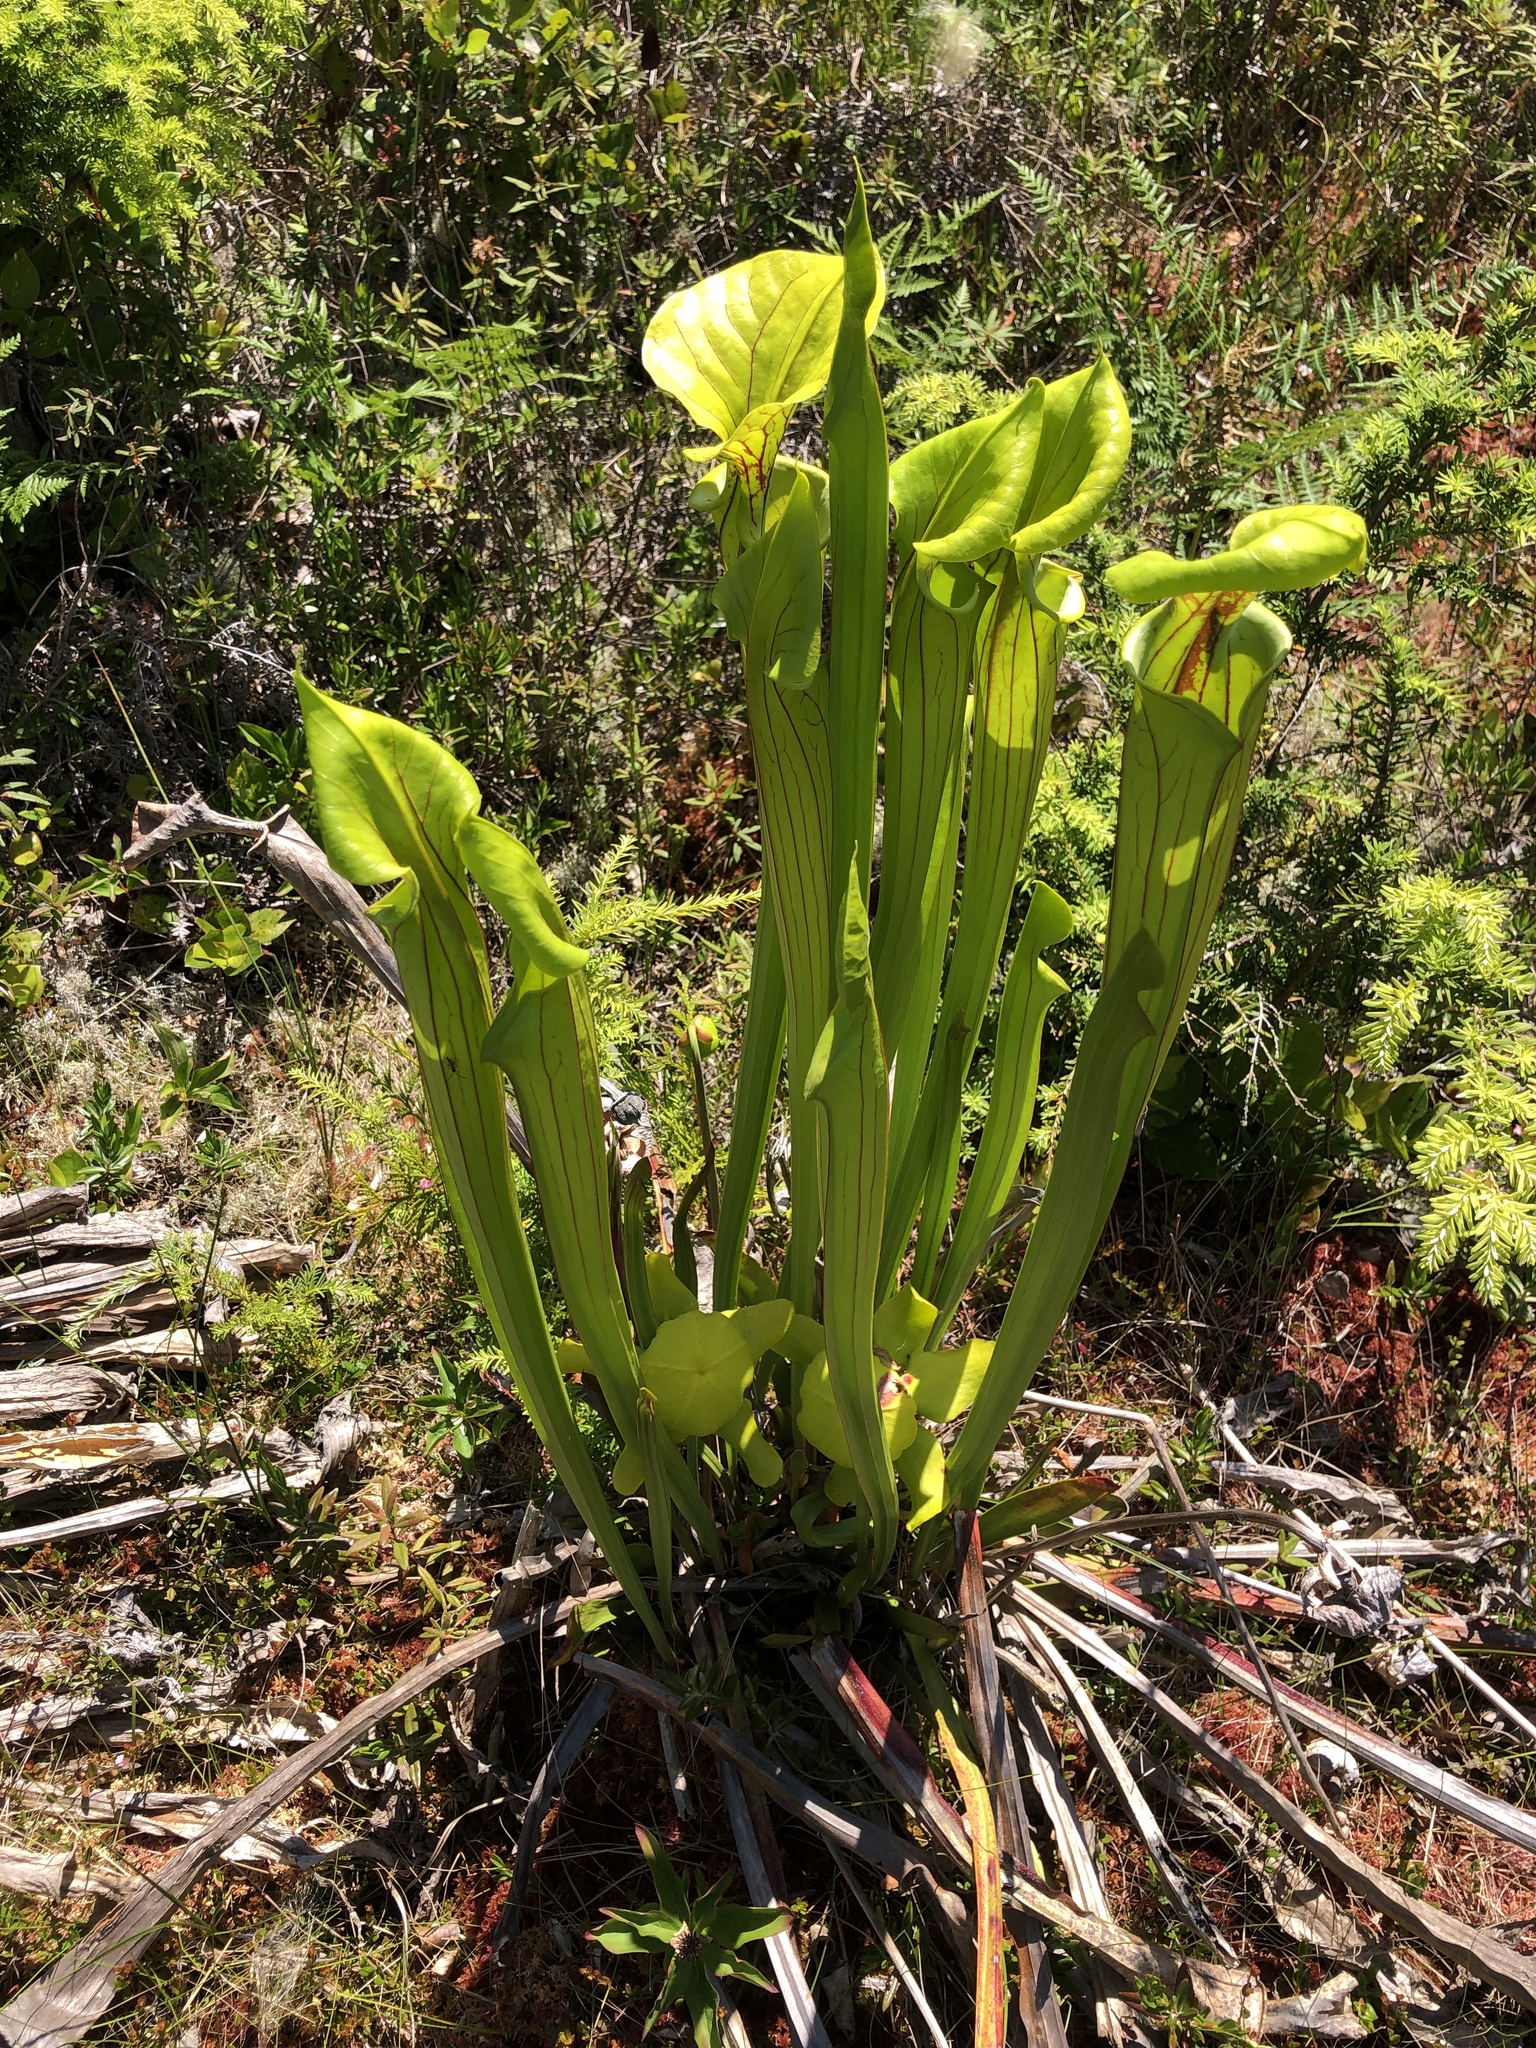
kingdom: Plantae
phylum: Tracheophyta
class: Magnoliopsida
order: Ericales
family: Sarraceniaceae
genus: Sarracenia
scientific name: Sarracenia flava
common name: Trumpets
